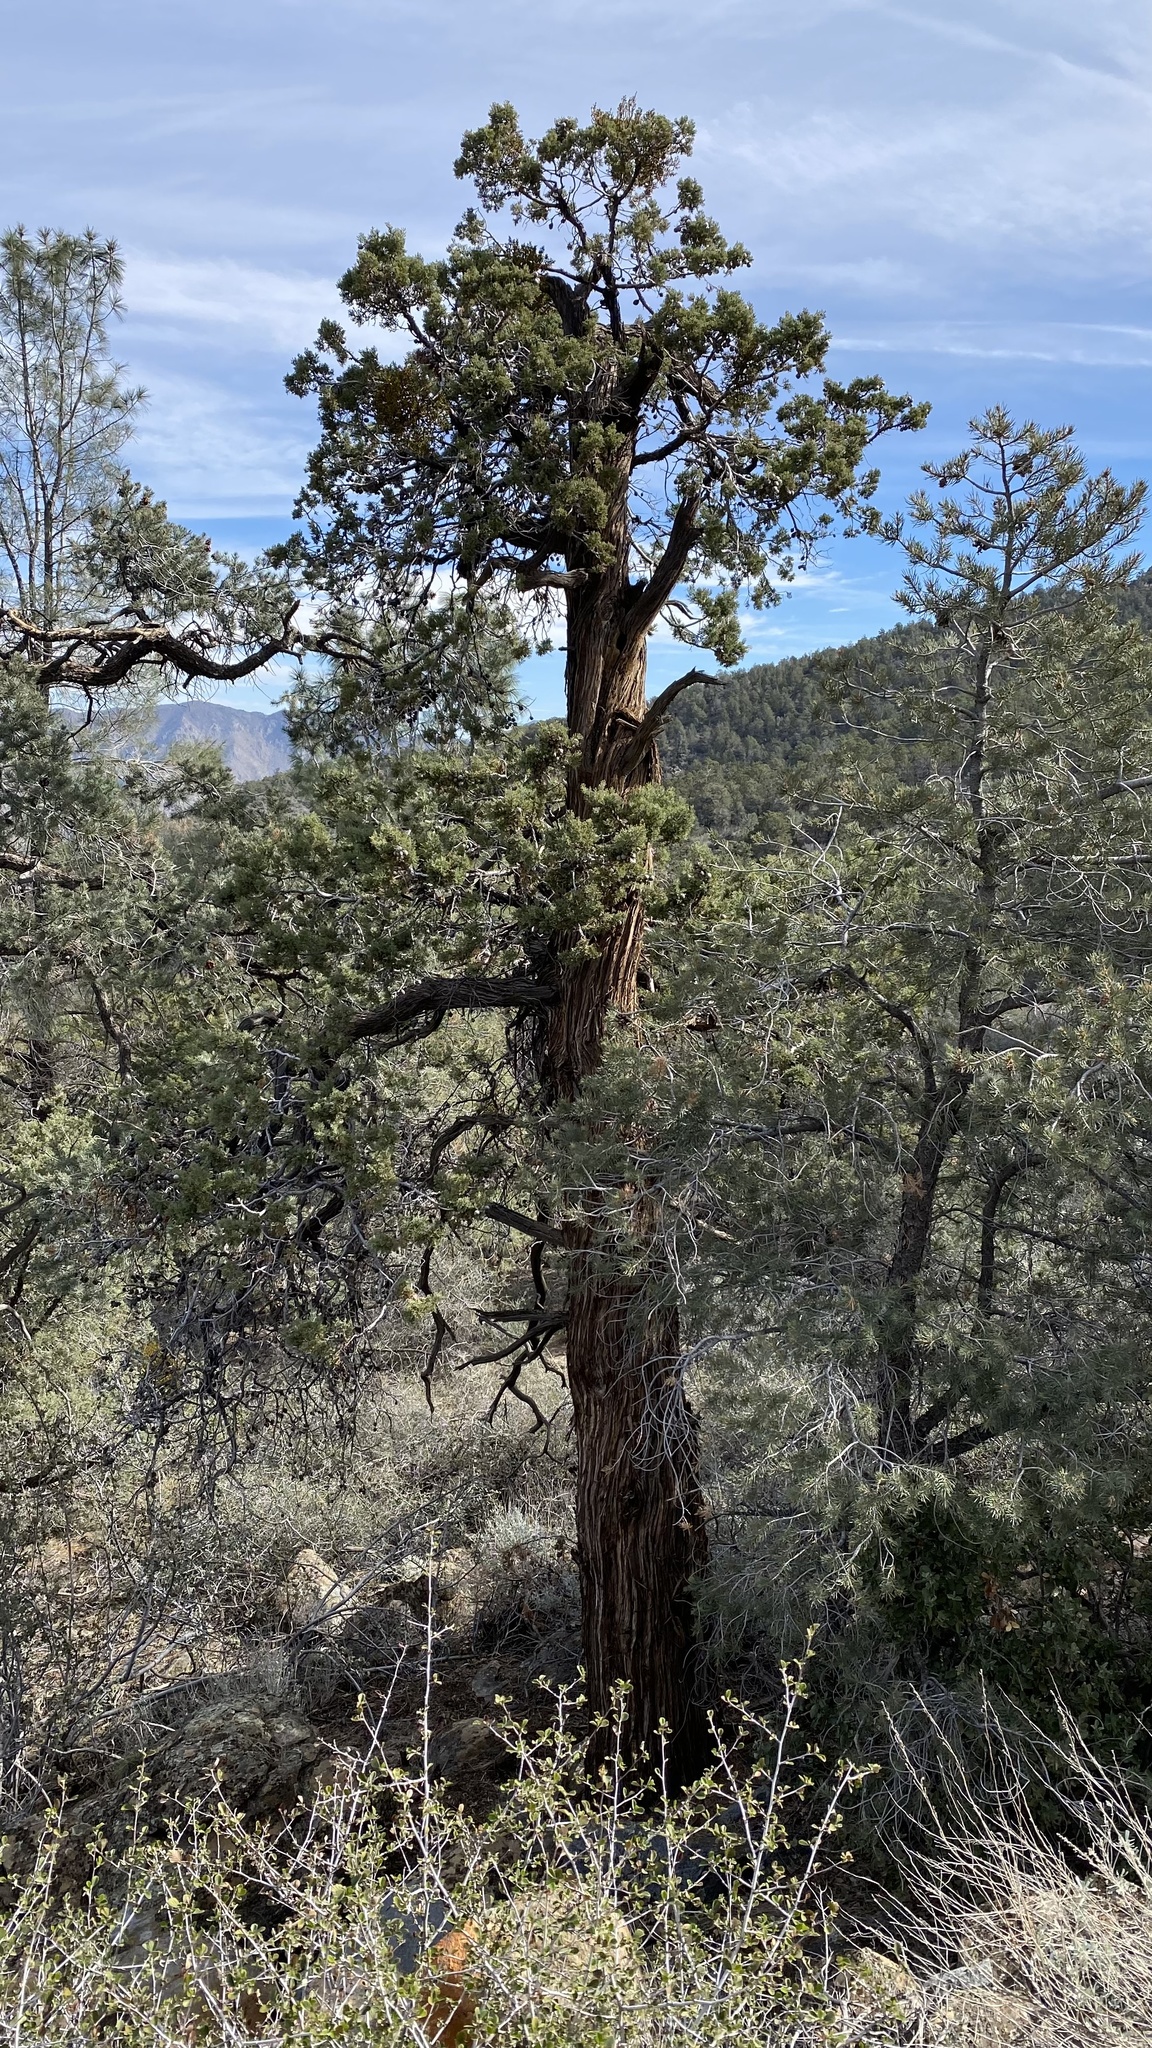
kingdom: Plantae
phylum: Tracheophyta
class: Pinopsida
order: Pinales
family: Cupressaceae
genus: Cupressus
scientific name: Cupressus arizonica
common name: Arizona cypress
